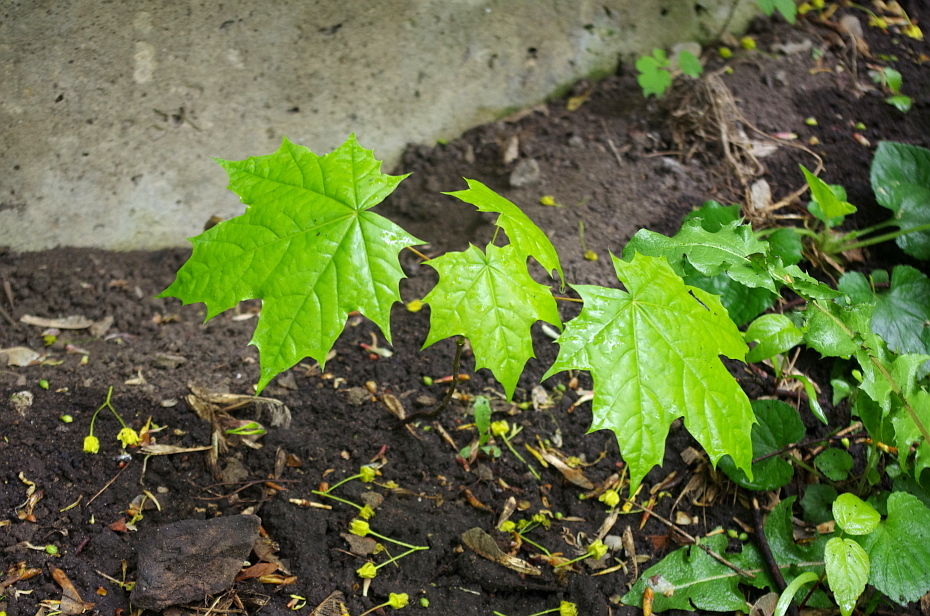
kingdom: Plantae
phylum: Tracheophyta
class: Magnoliopsida
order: Sapindales
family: Sapindaceae
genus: Acer
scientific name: Acer platanoides
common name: Norway maple
